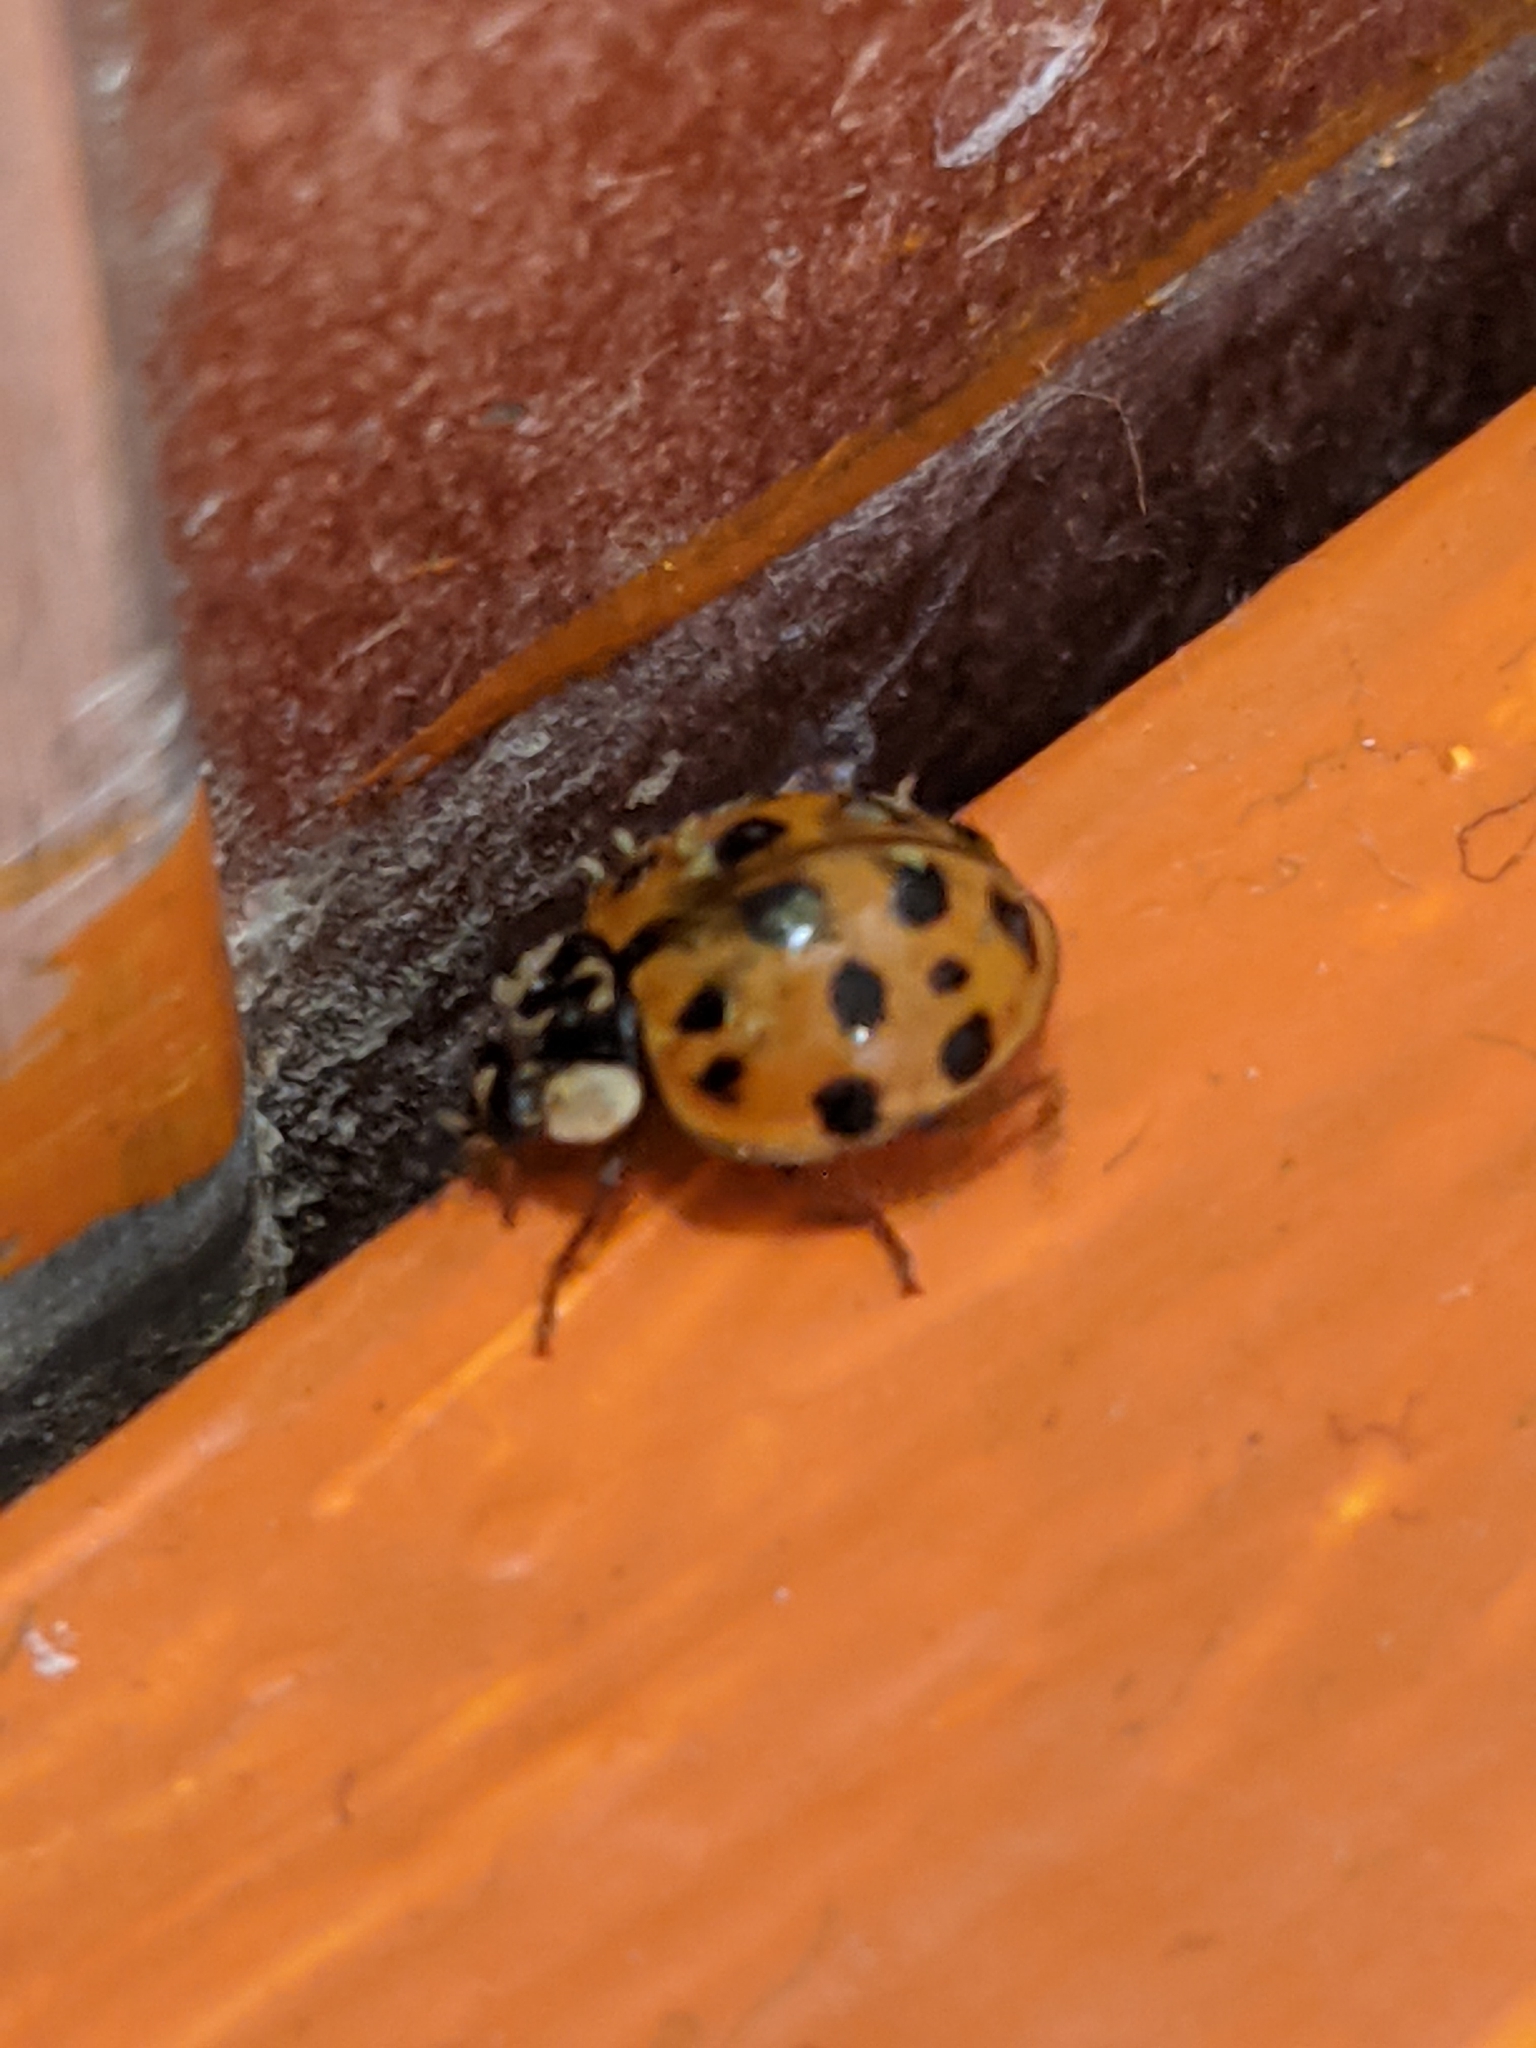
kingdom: Animalia
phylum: Arthropoda
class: Insecta
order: Coleoptera
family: Coccinellidae
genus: Harmonia
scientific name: Harmonia axyridis
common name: Harlequin ladybird
